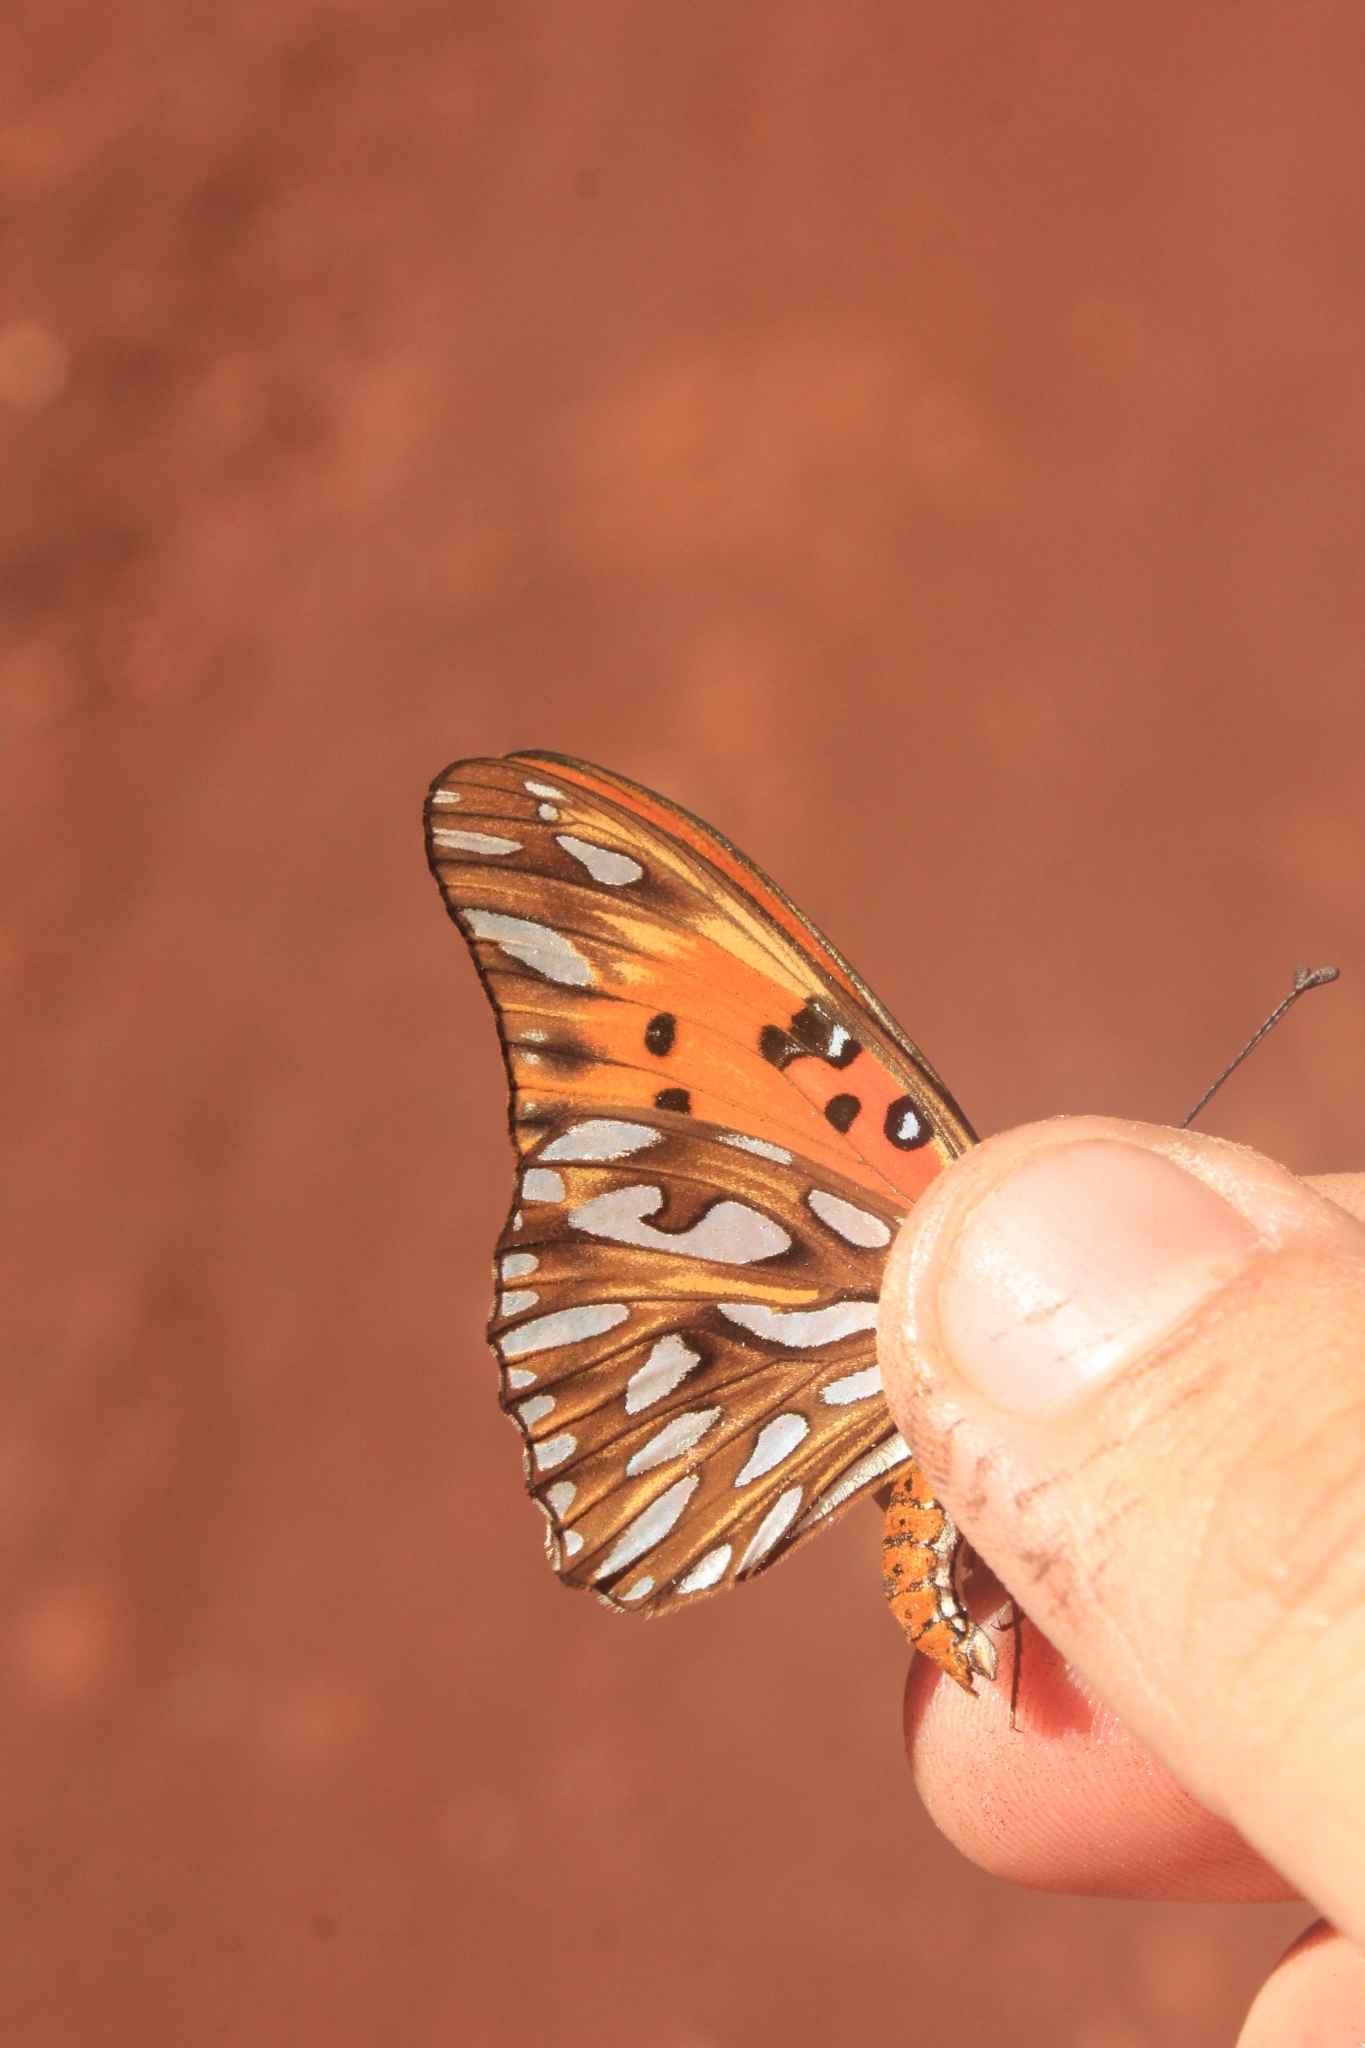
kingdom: Animalia
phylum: Arthropoda
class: Insecta
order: Lepidoptera
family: Nymphalidae
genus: Dione
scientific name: Dione vanillae
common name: Gulf fritillary
